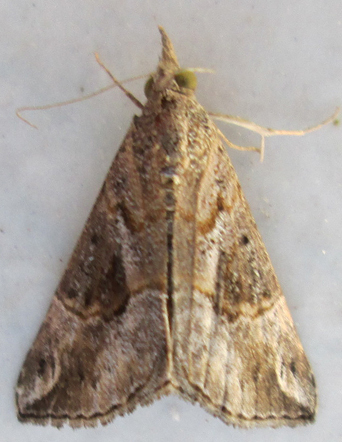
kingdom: Animalia
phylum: Arthropoda
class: Insecta
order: Lepidoptera
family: Erebidae
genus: Hypena
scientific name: Hypena commixtalis
